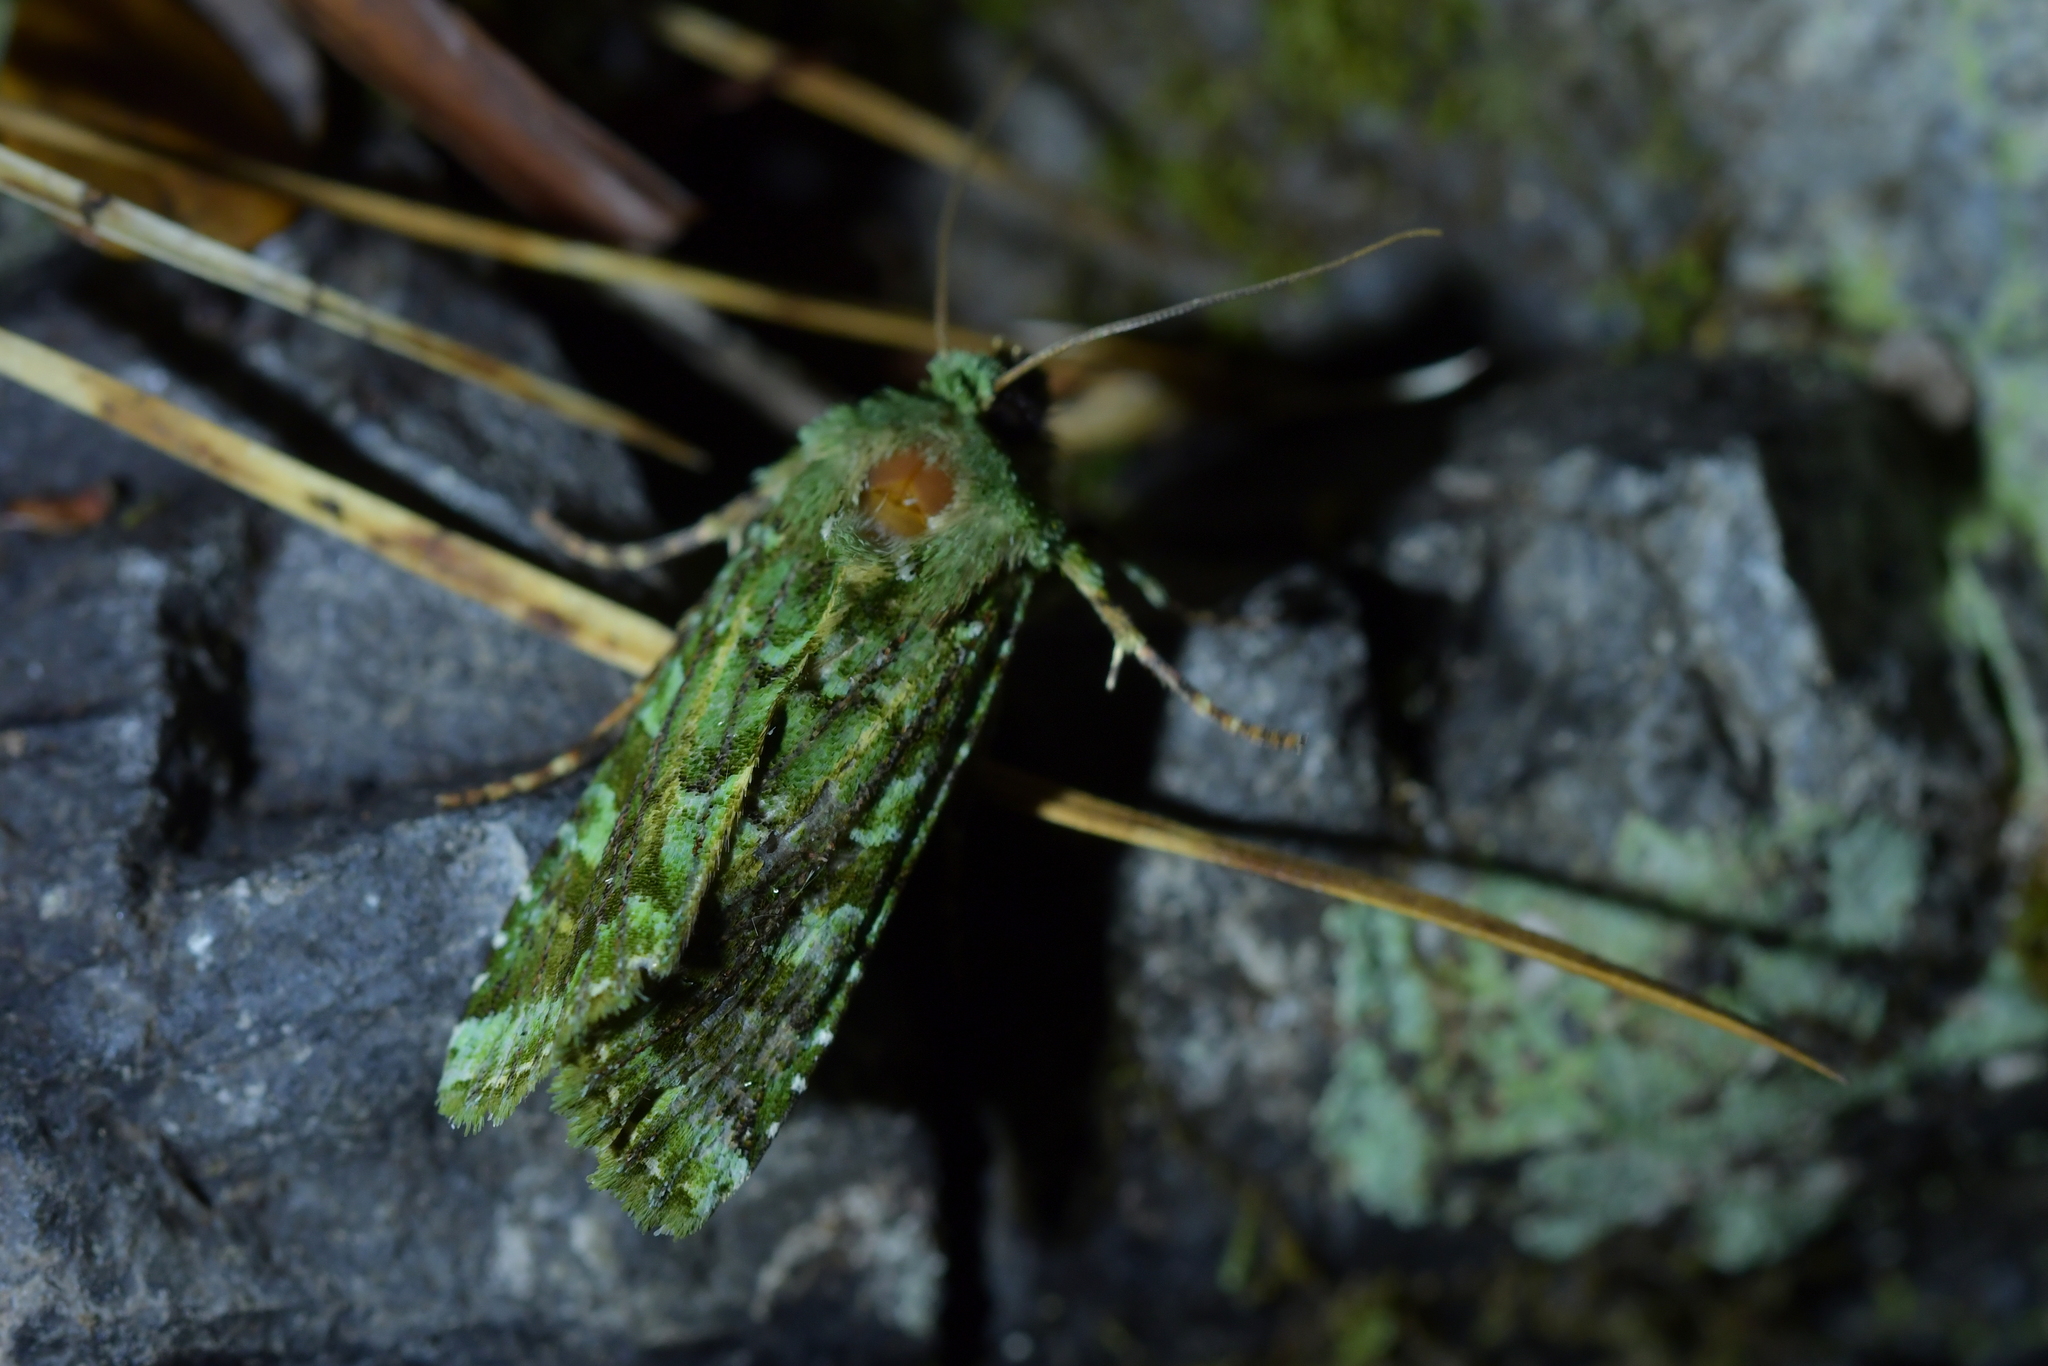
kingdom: Animalia
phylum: Arthropoda
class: Insecta
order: Lepidoptera
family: Noctuidae
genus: Feredayia
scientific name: Feredayia grammosa
